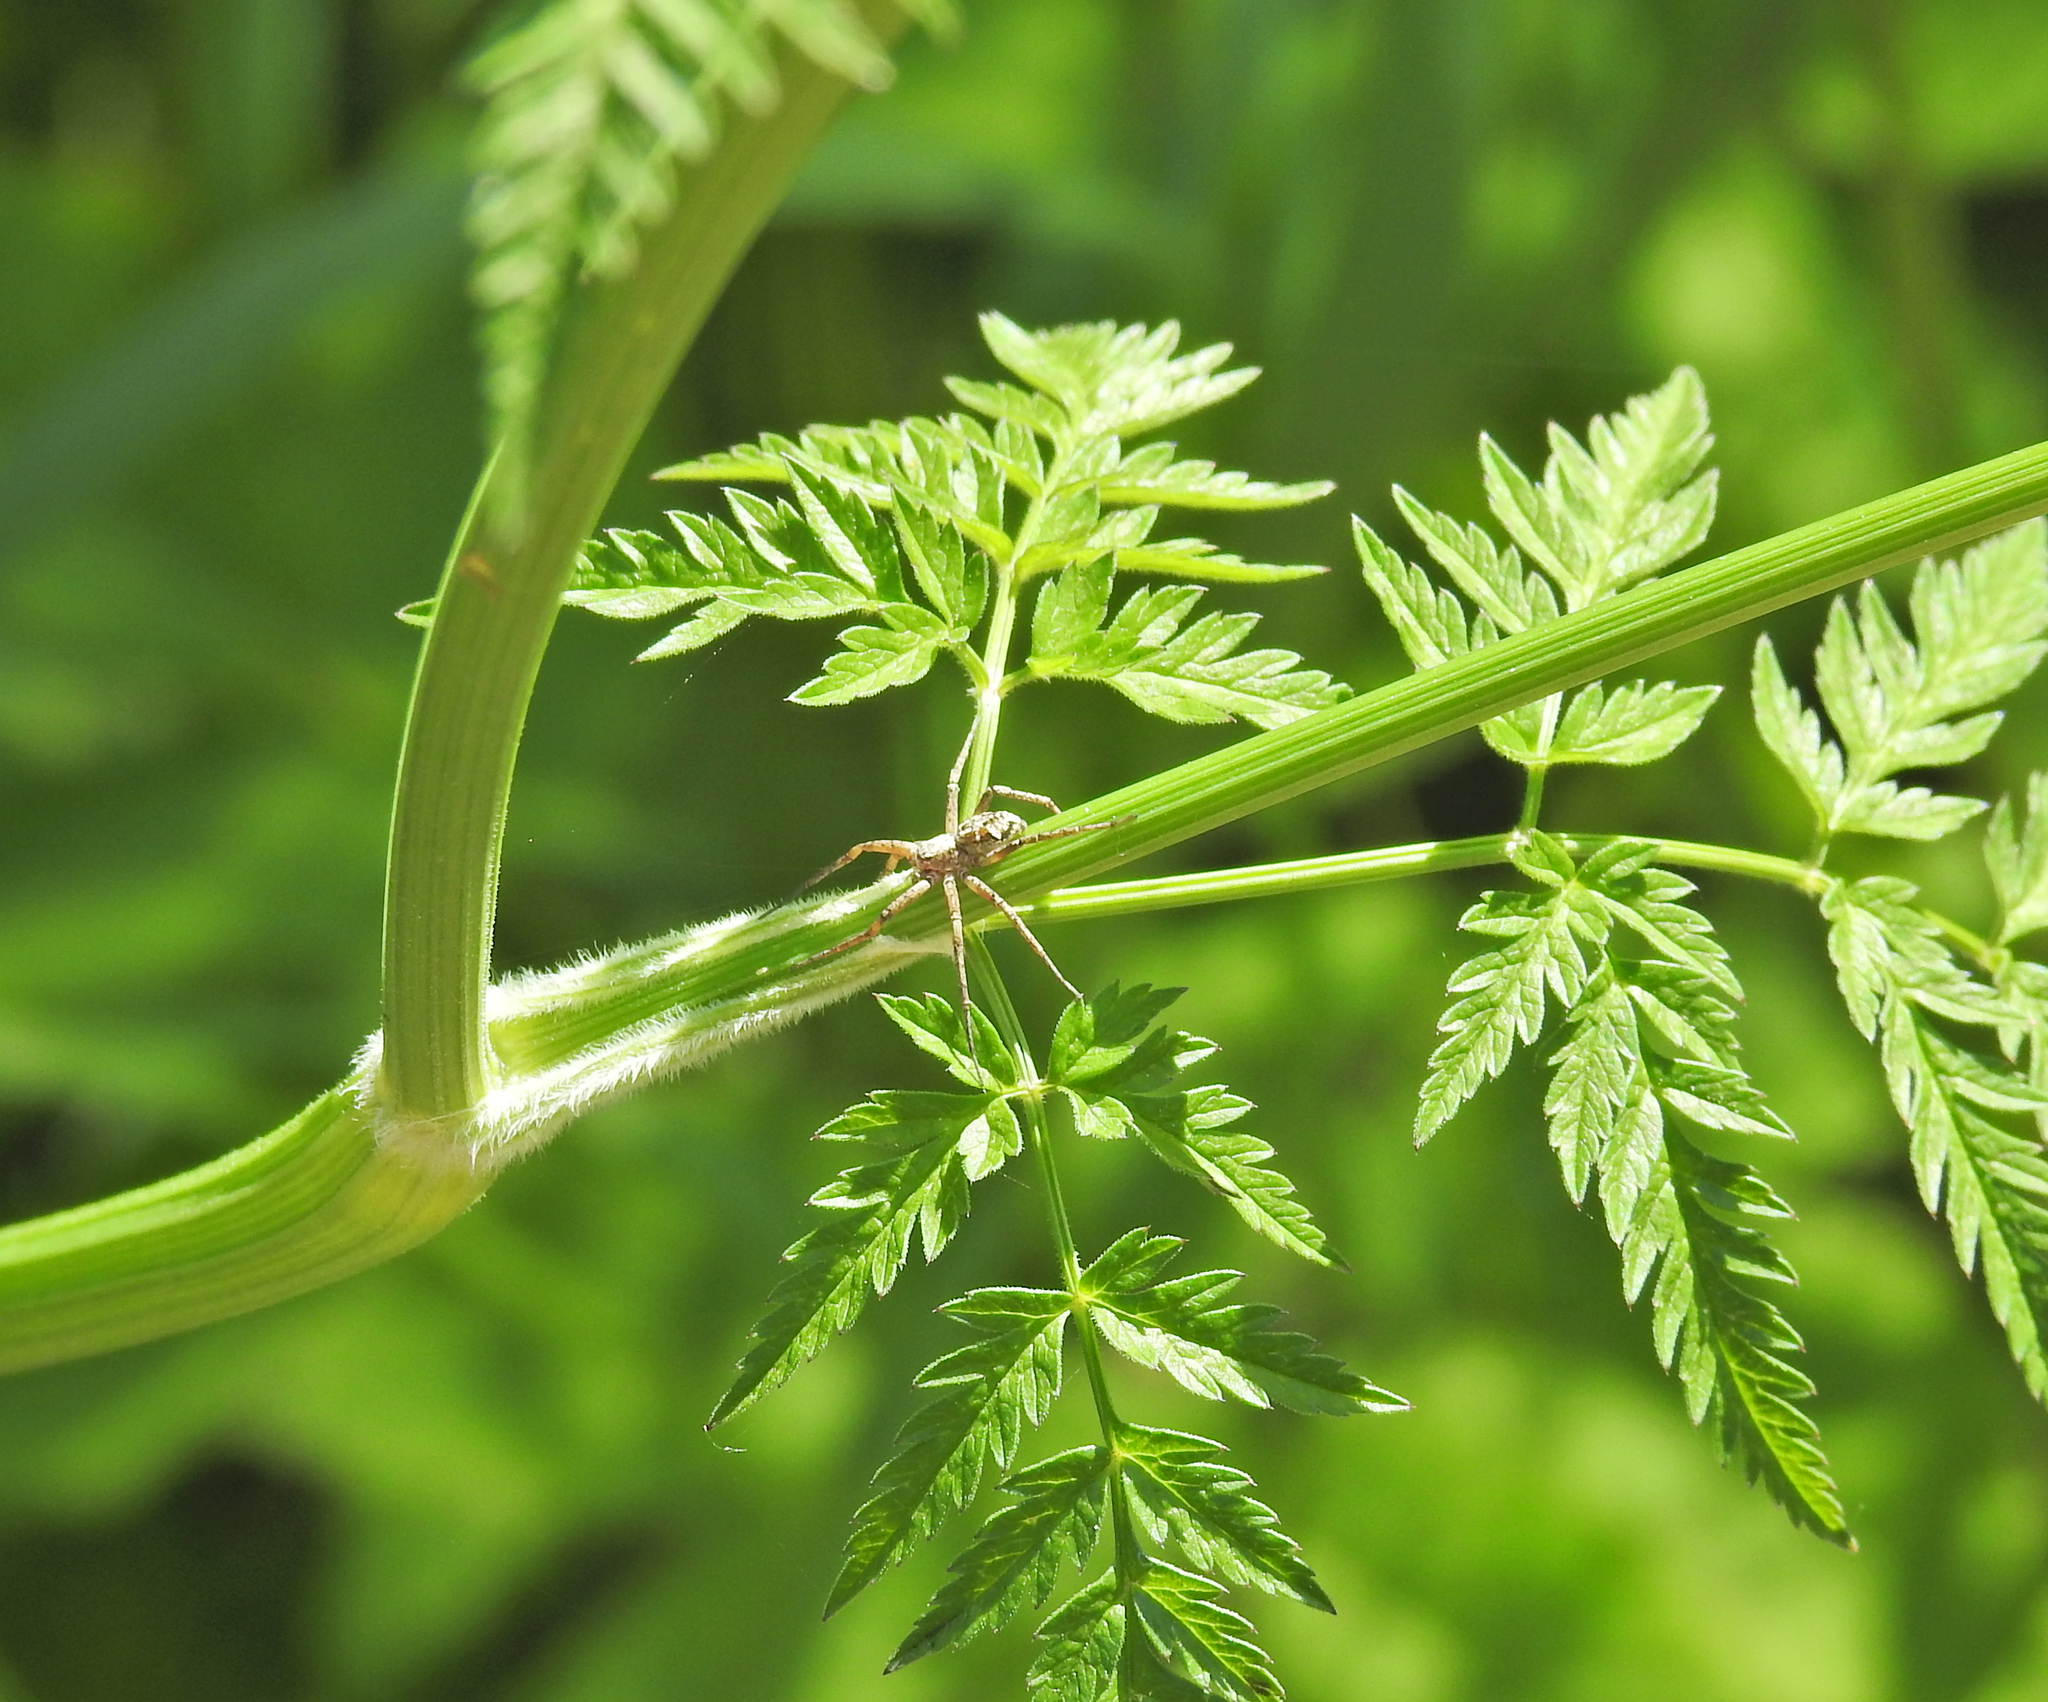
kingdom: Animalia
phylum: Arthropoda
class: Arachnida
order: Araneae
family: Philodromidae
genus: Philodromus
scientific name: Philodromus
